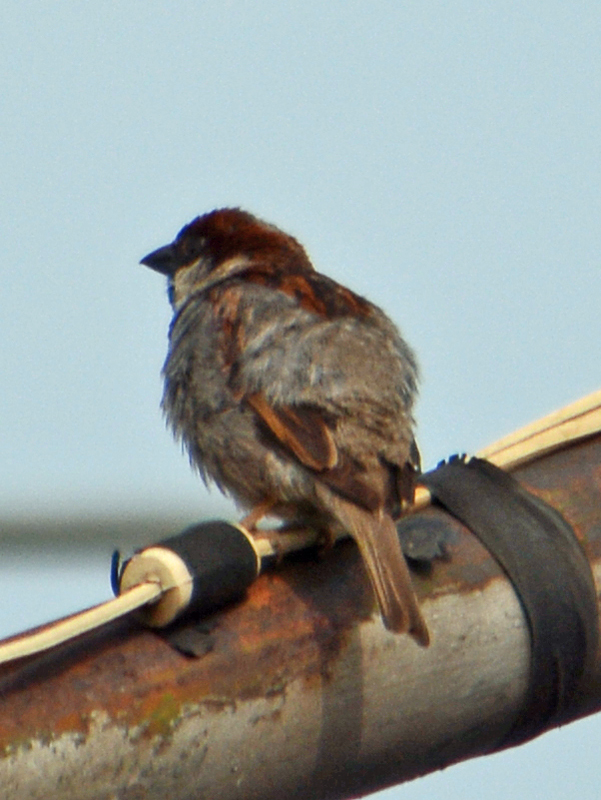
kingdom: Animalia
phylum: Chordata
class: Aves
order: Passeriformes
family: Passeridae
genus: Passer
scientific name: Passer domesticus
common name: House sparrow
